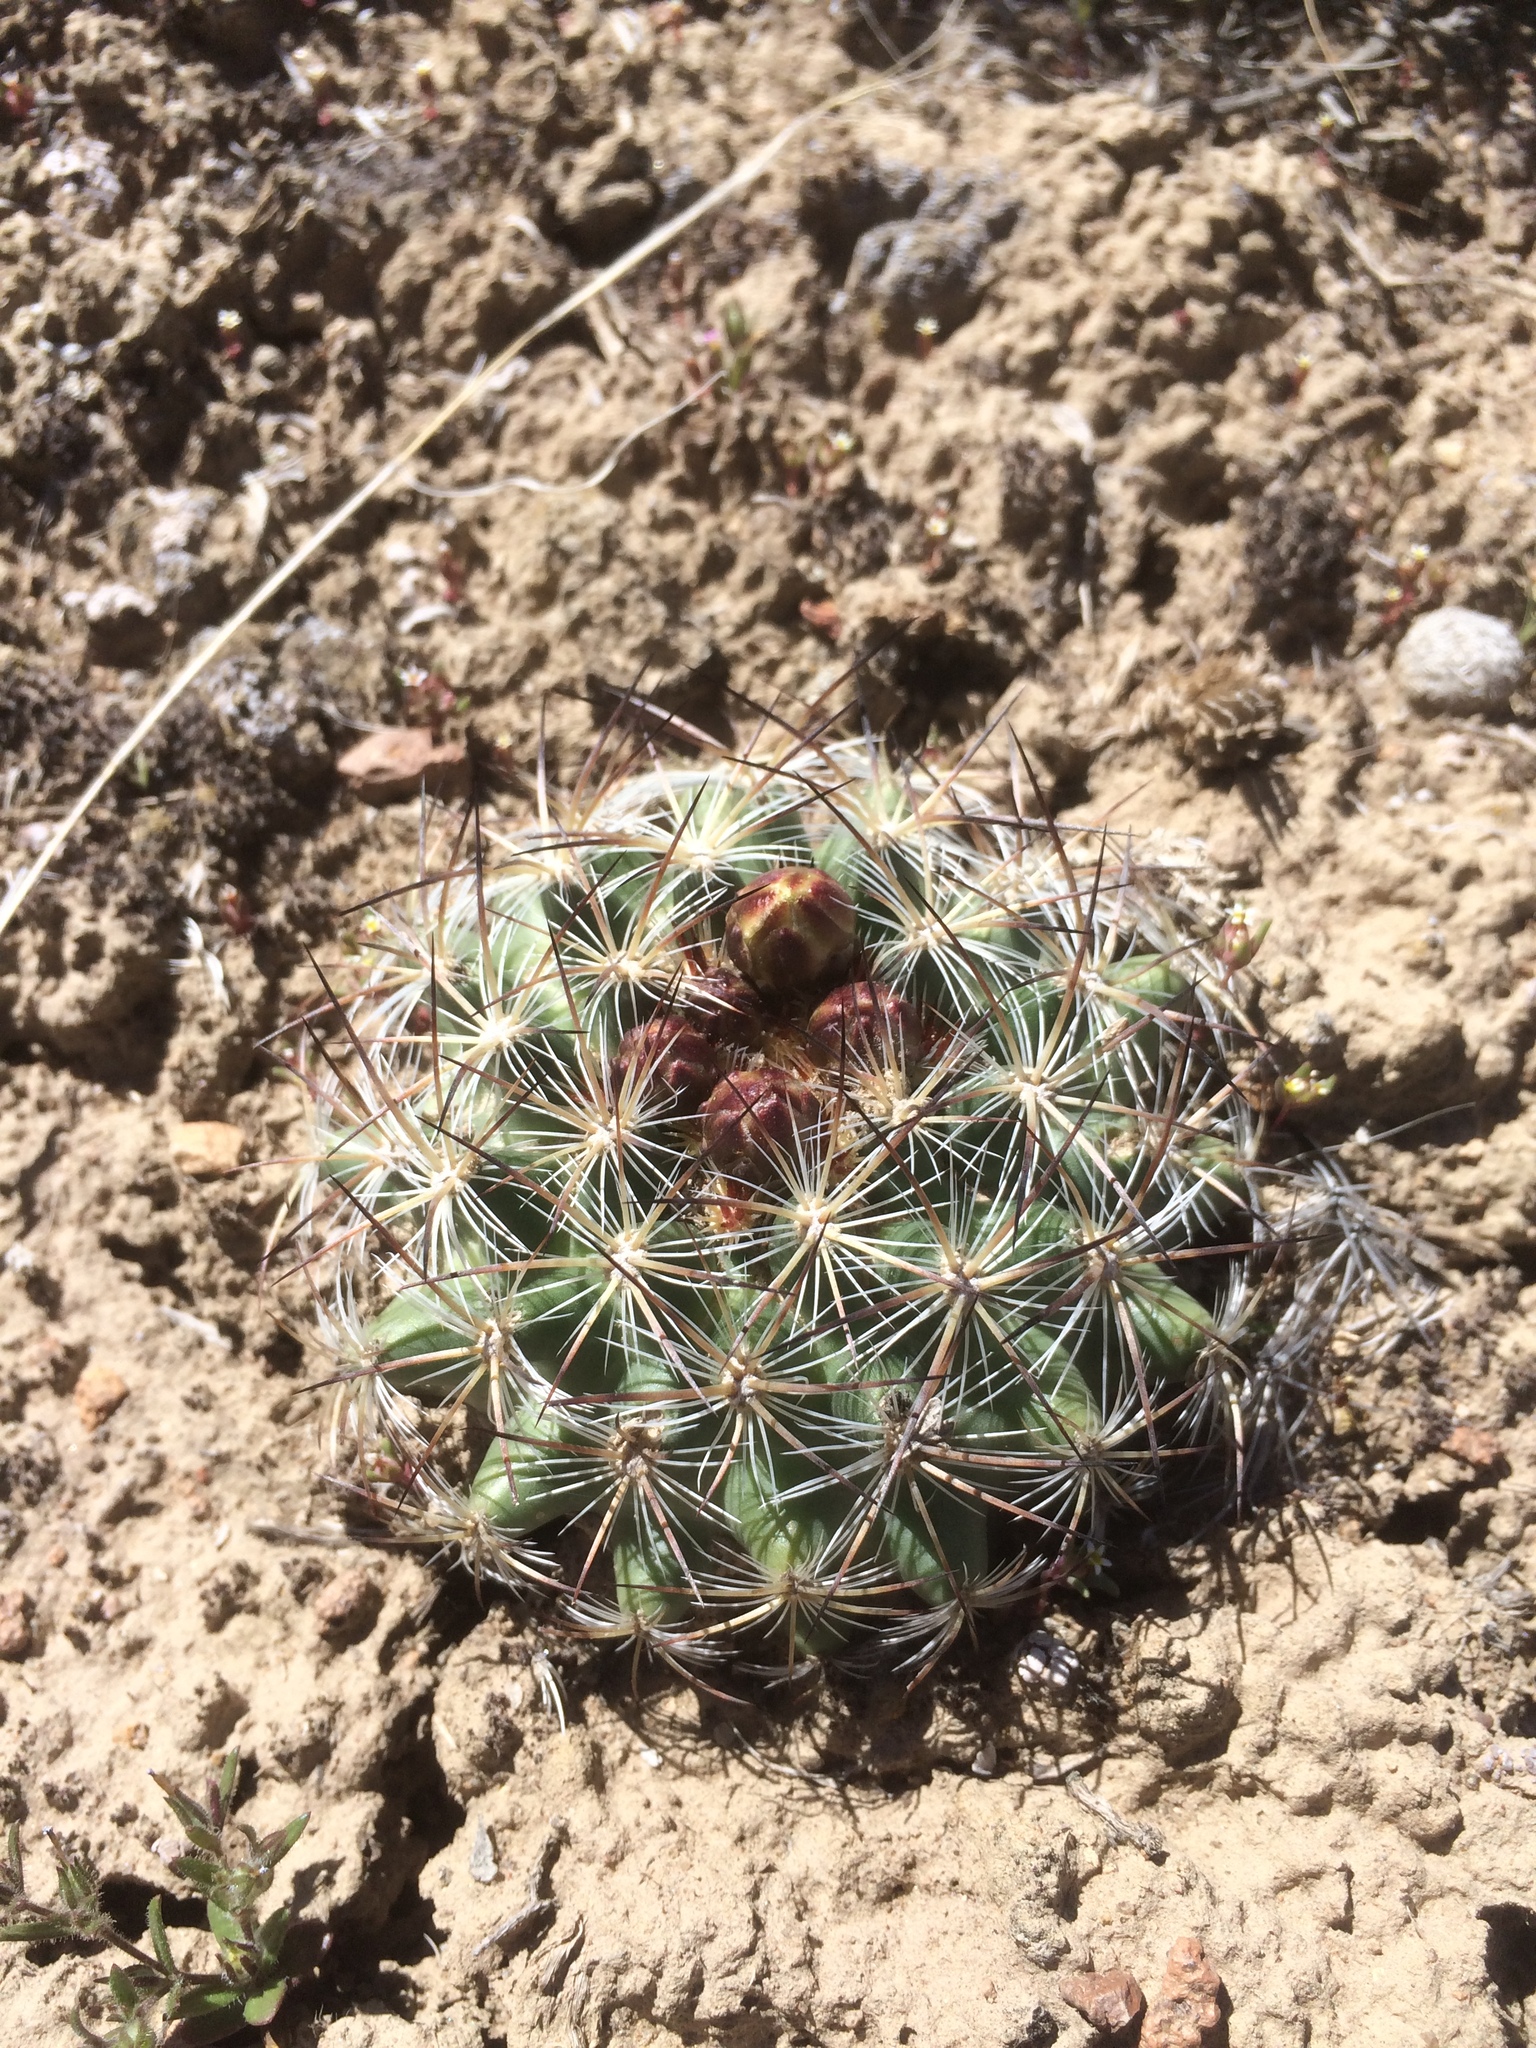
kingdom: Plantae
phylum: Tracheophyta
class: Magnoliopsida
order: Caryophyllales
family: Cactaceae
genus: Pediocactus
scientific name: Pediocactus simpsonii
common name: Simpson's hedgehog cactus
